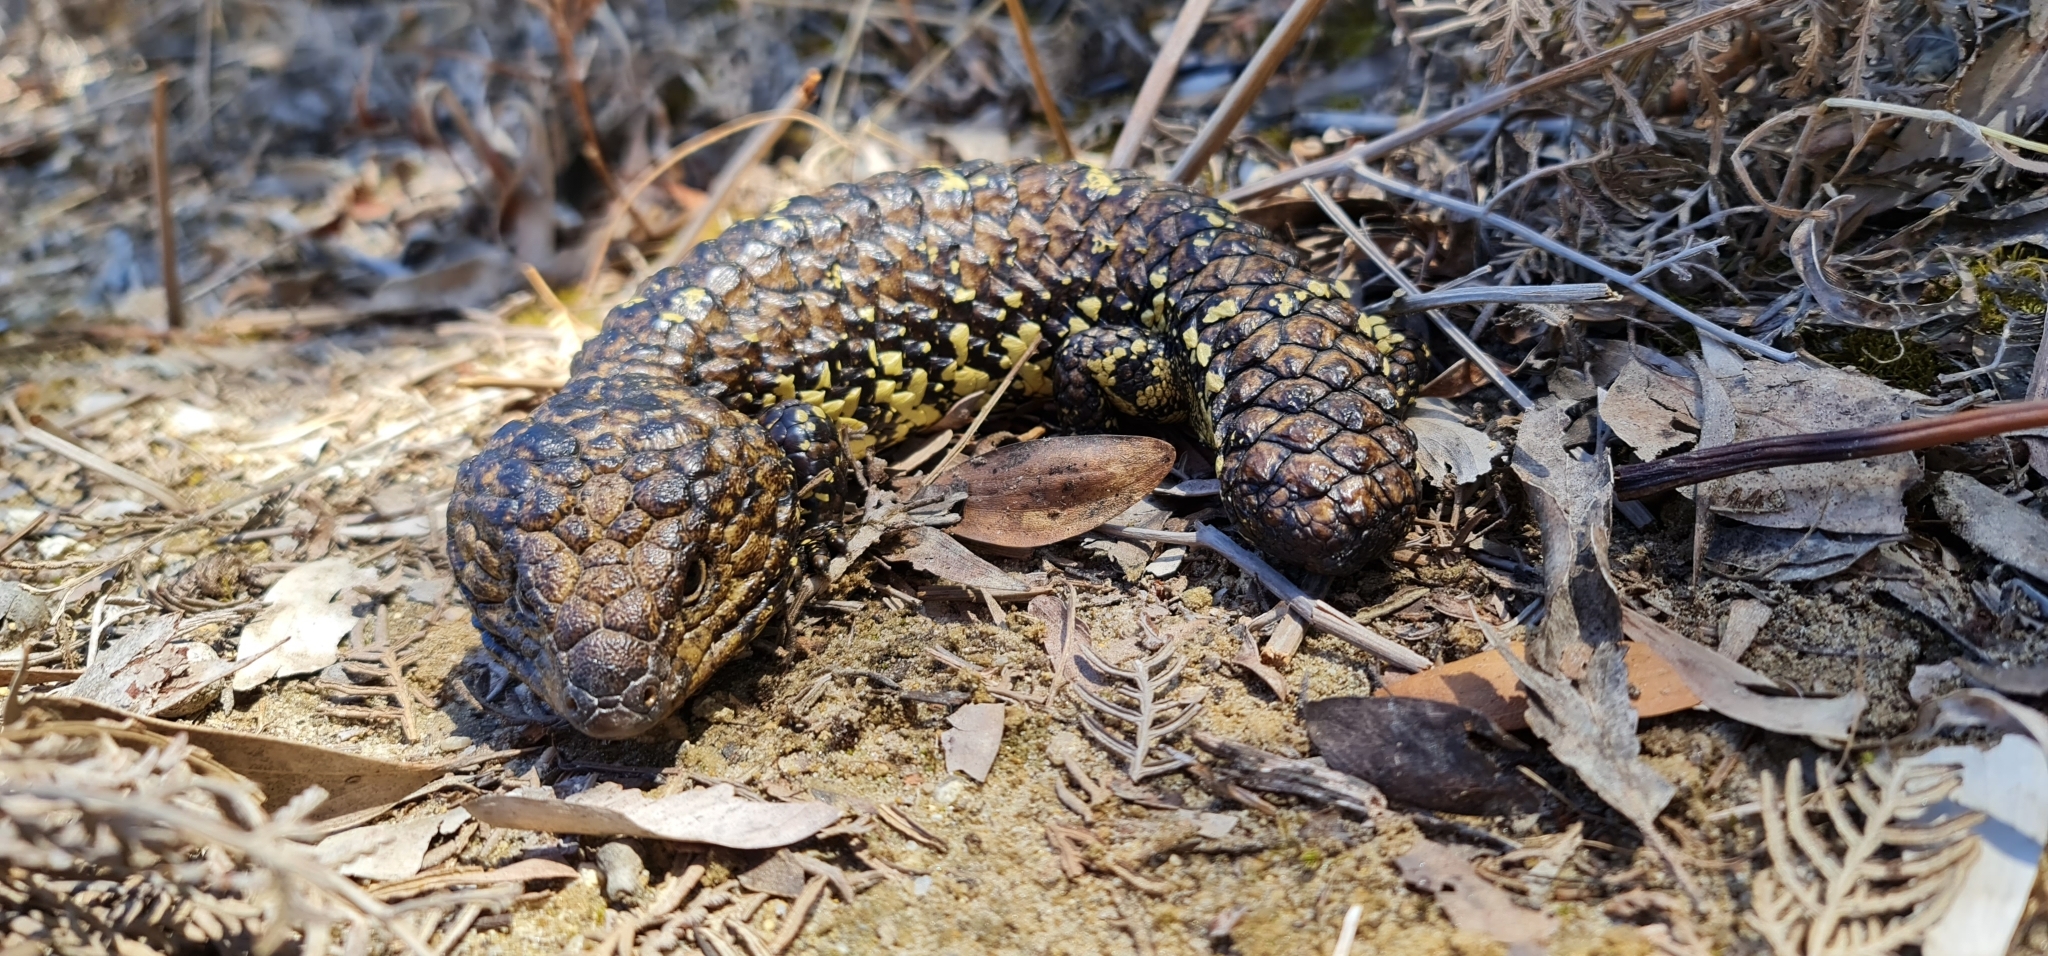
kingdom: Animalia
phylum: Chordata
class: Squamata
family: Scincidae
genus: Tiliqua
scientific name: Tiliqua rugosa
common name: Pinecone lizard
